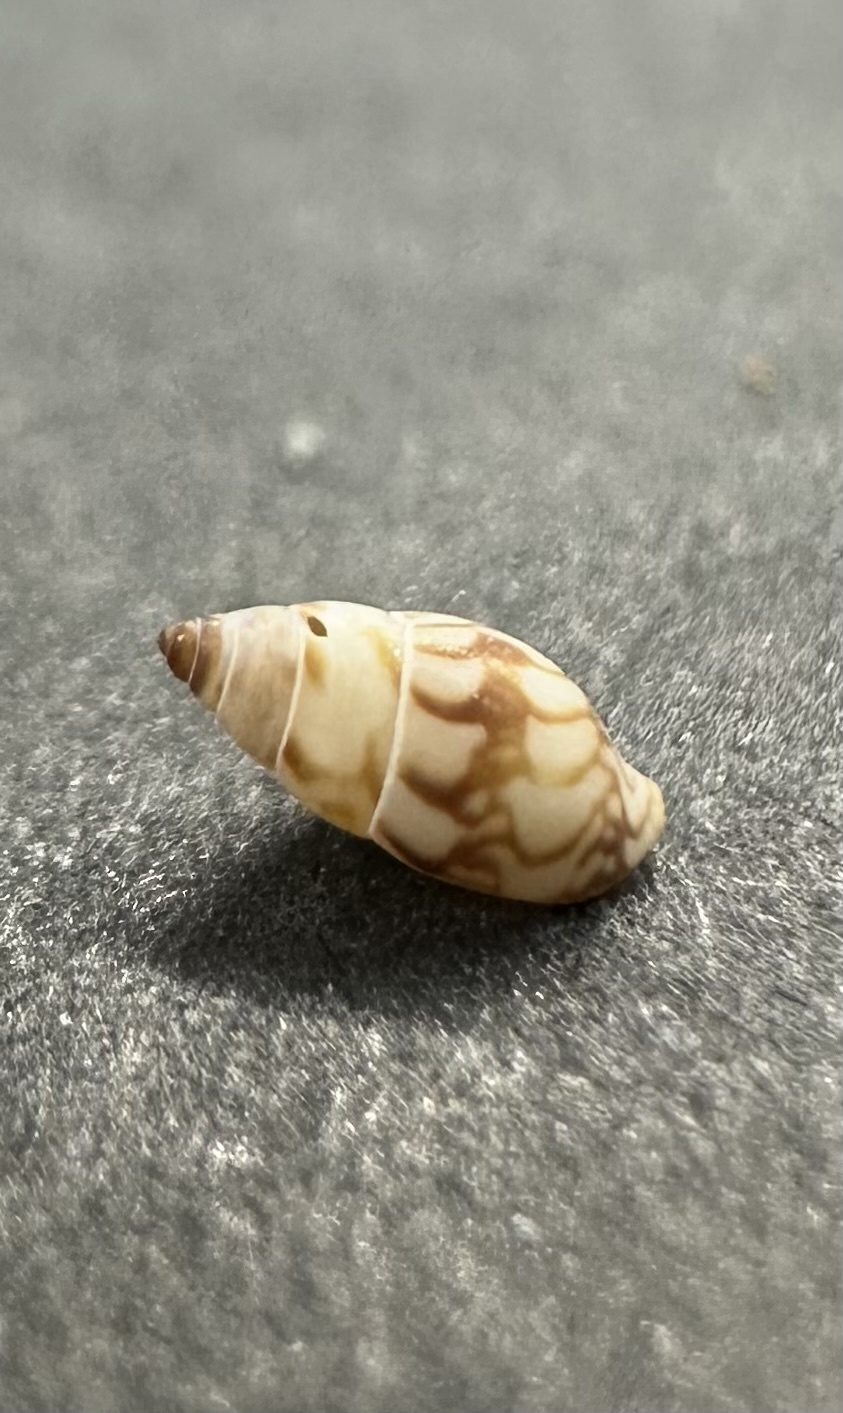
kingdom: Animalia
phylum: Mollusca
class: Gastropoda
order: Neogastropoda
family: Columbellidae
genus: Astyris
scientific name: Astyris lunata
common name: Lunar dovesnail
